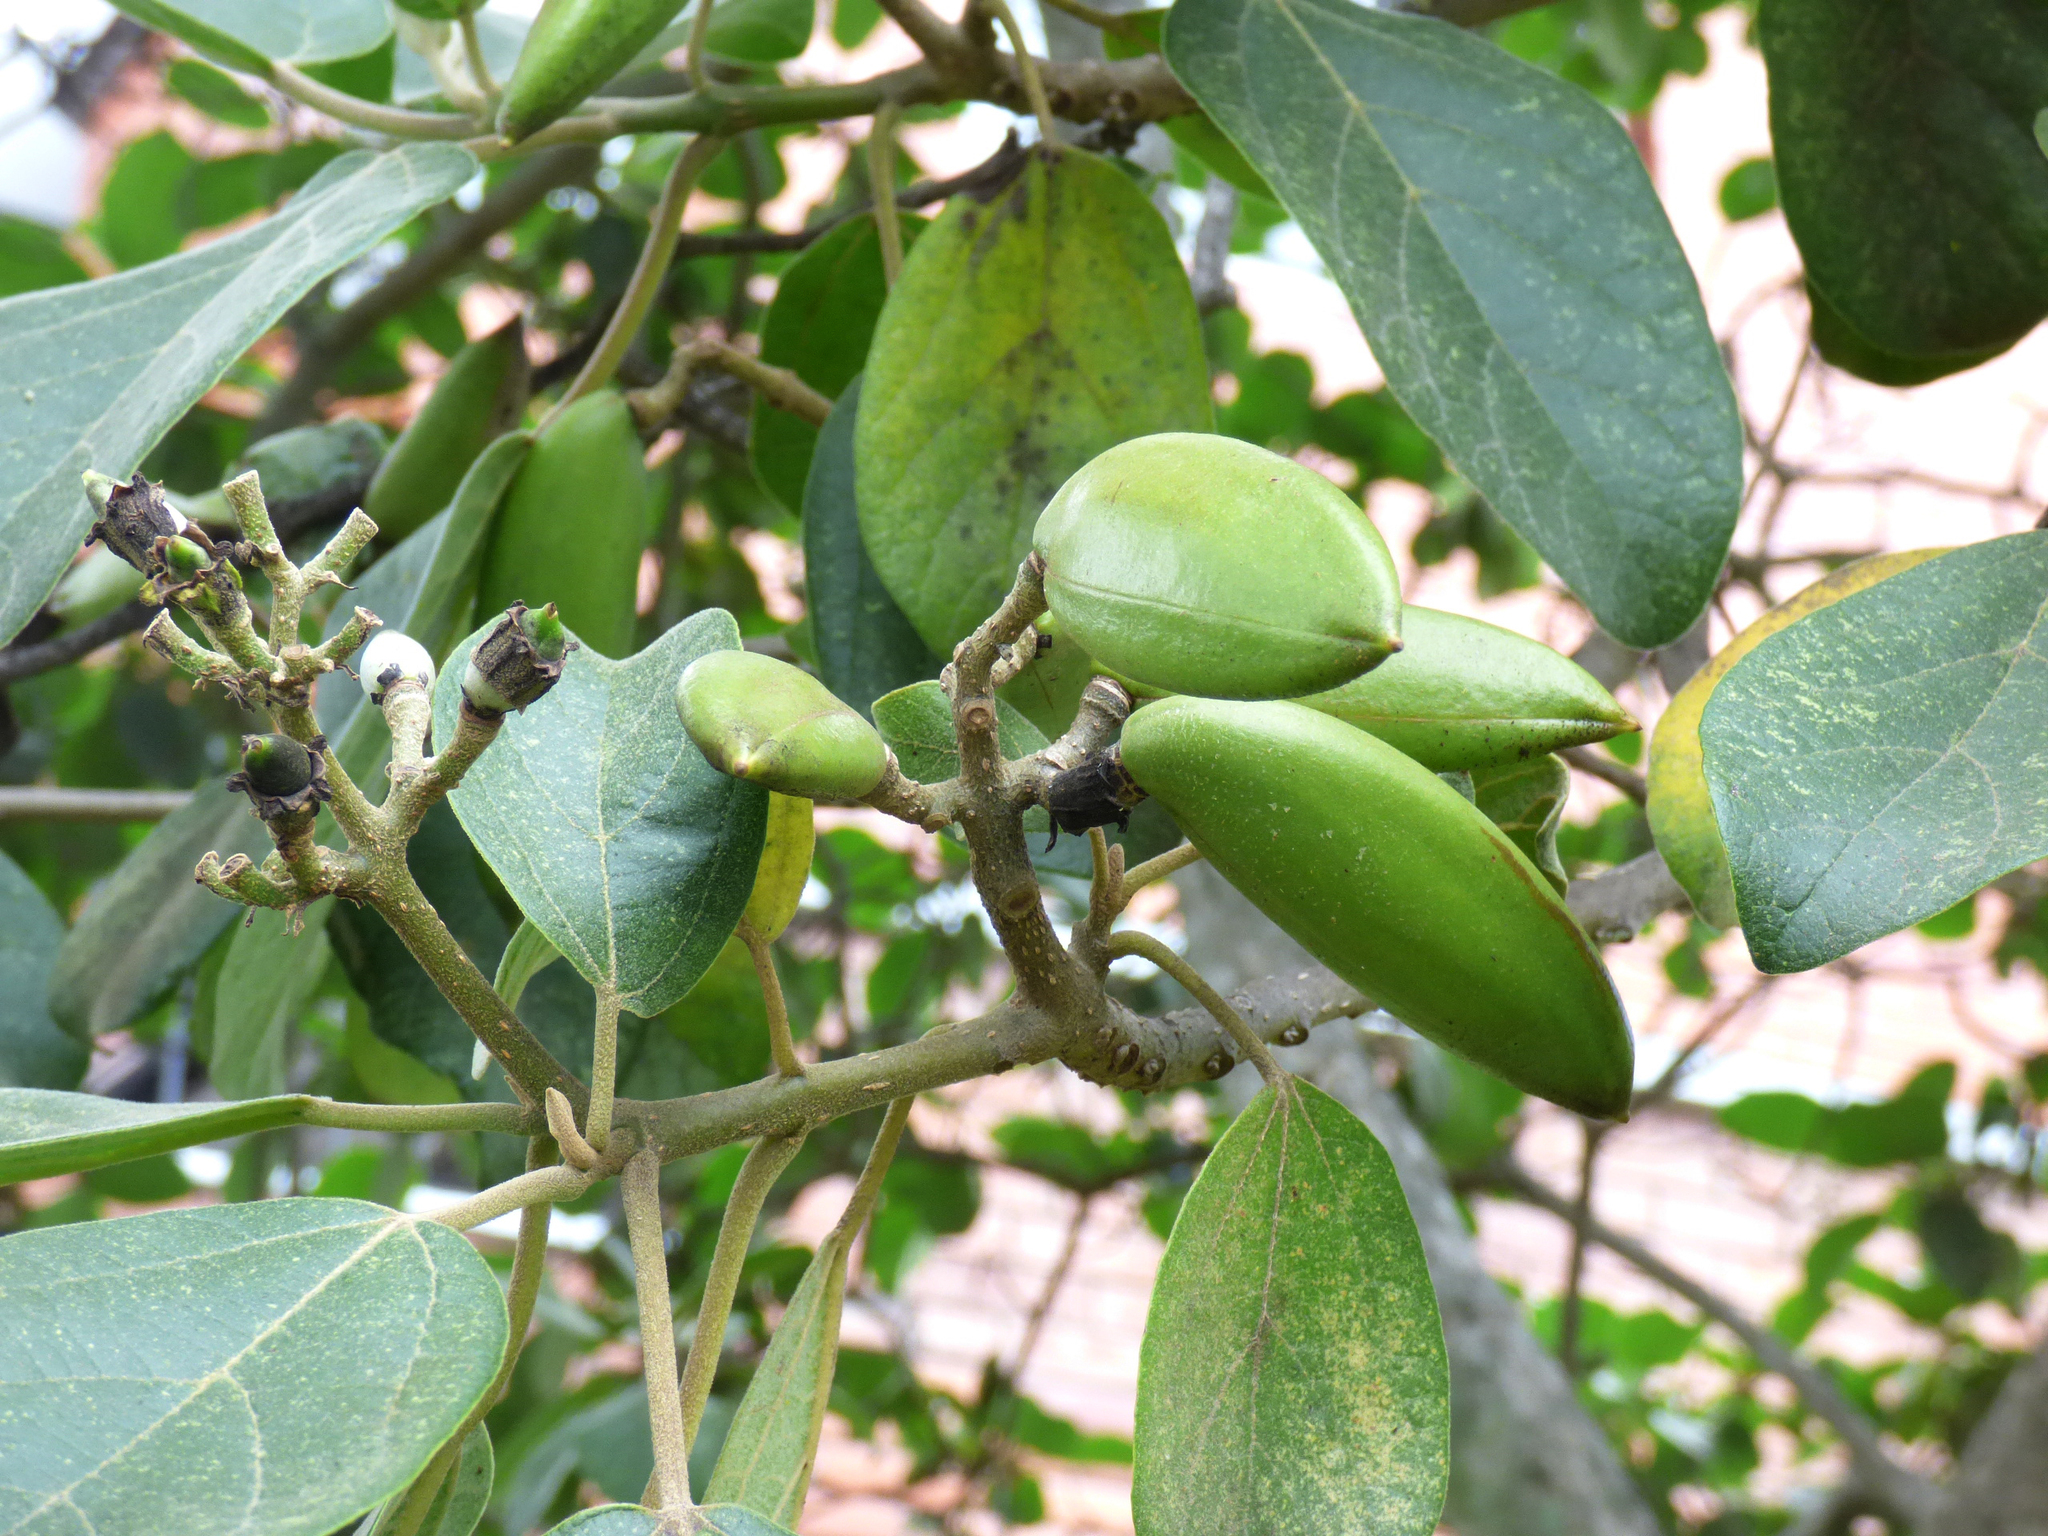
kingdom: Plantae
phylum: Tracheophyta
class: Magnoliopsida
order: Lamiales
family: Bignoniaceae
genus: Delostoma
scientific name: Delostoma integrifolium
